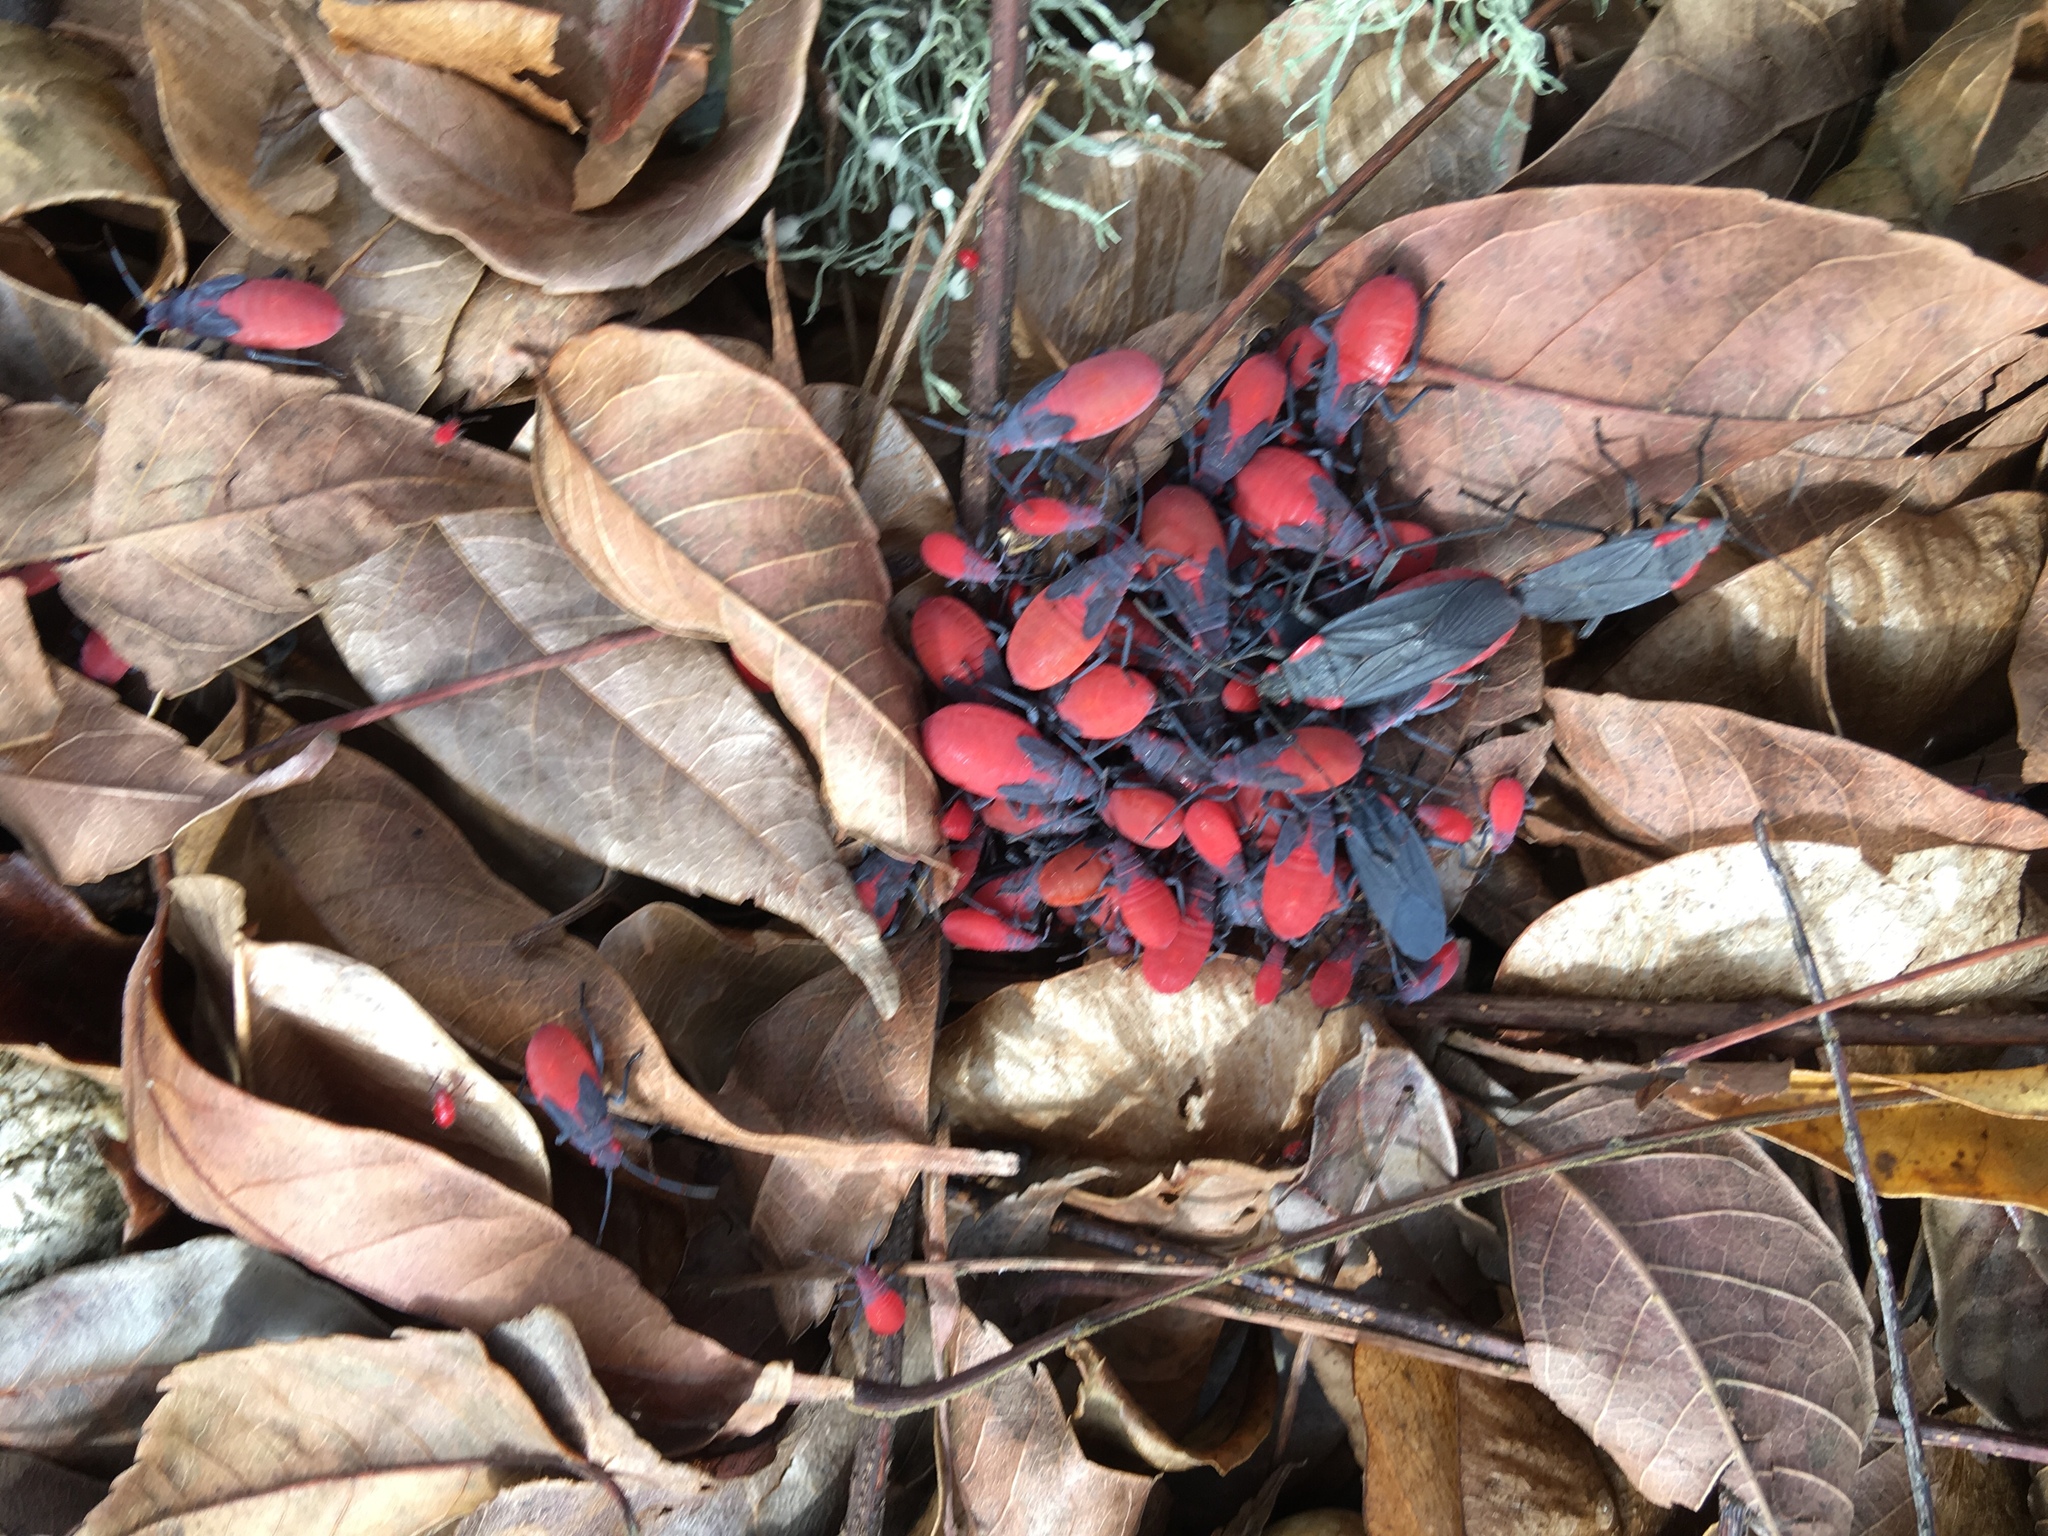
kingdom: Animalia
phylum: Arthropoda
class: Insecta
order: Hemiptera
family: Rhopalidae
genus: Jadera
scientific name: Jadera haematoloma
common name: Red-shouldered bug
